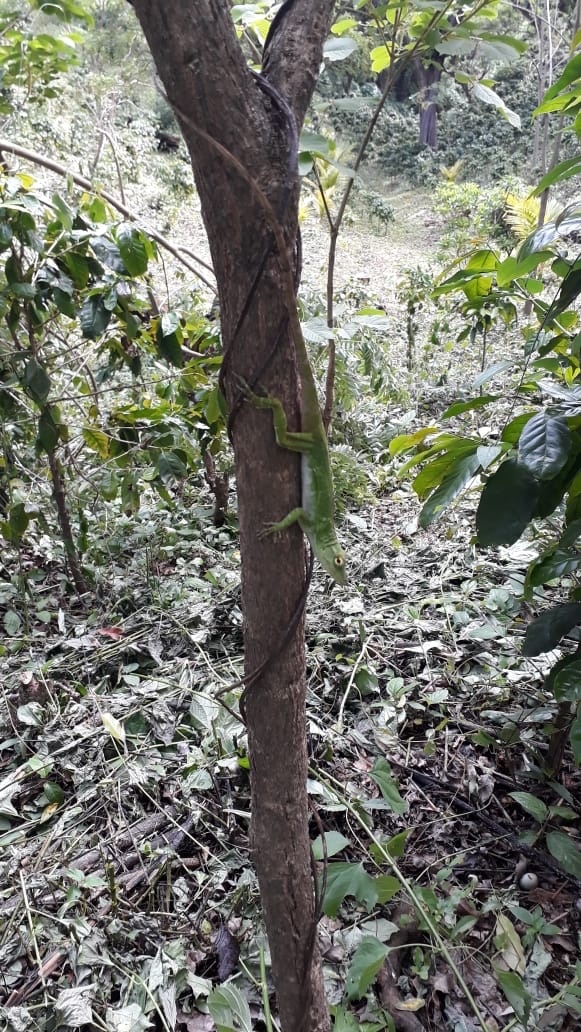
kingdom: Animalia
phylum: Chordata
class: Squamata
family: Dactyloidae
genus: Anolis
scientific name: Anolis biporcatus
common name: Giant green anole
